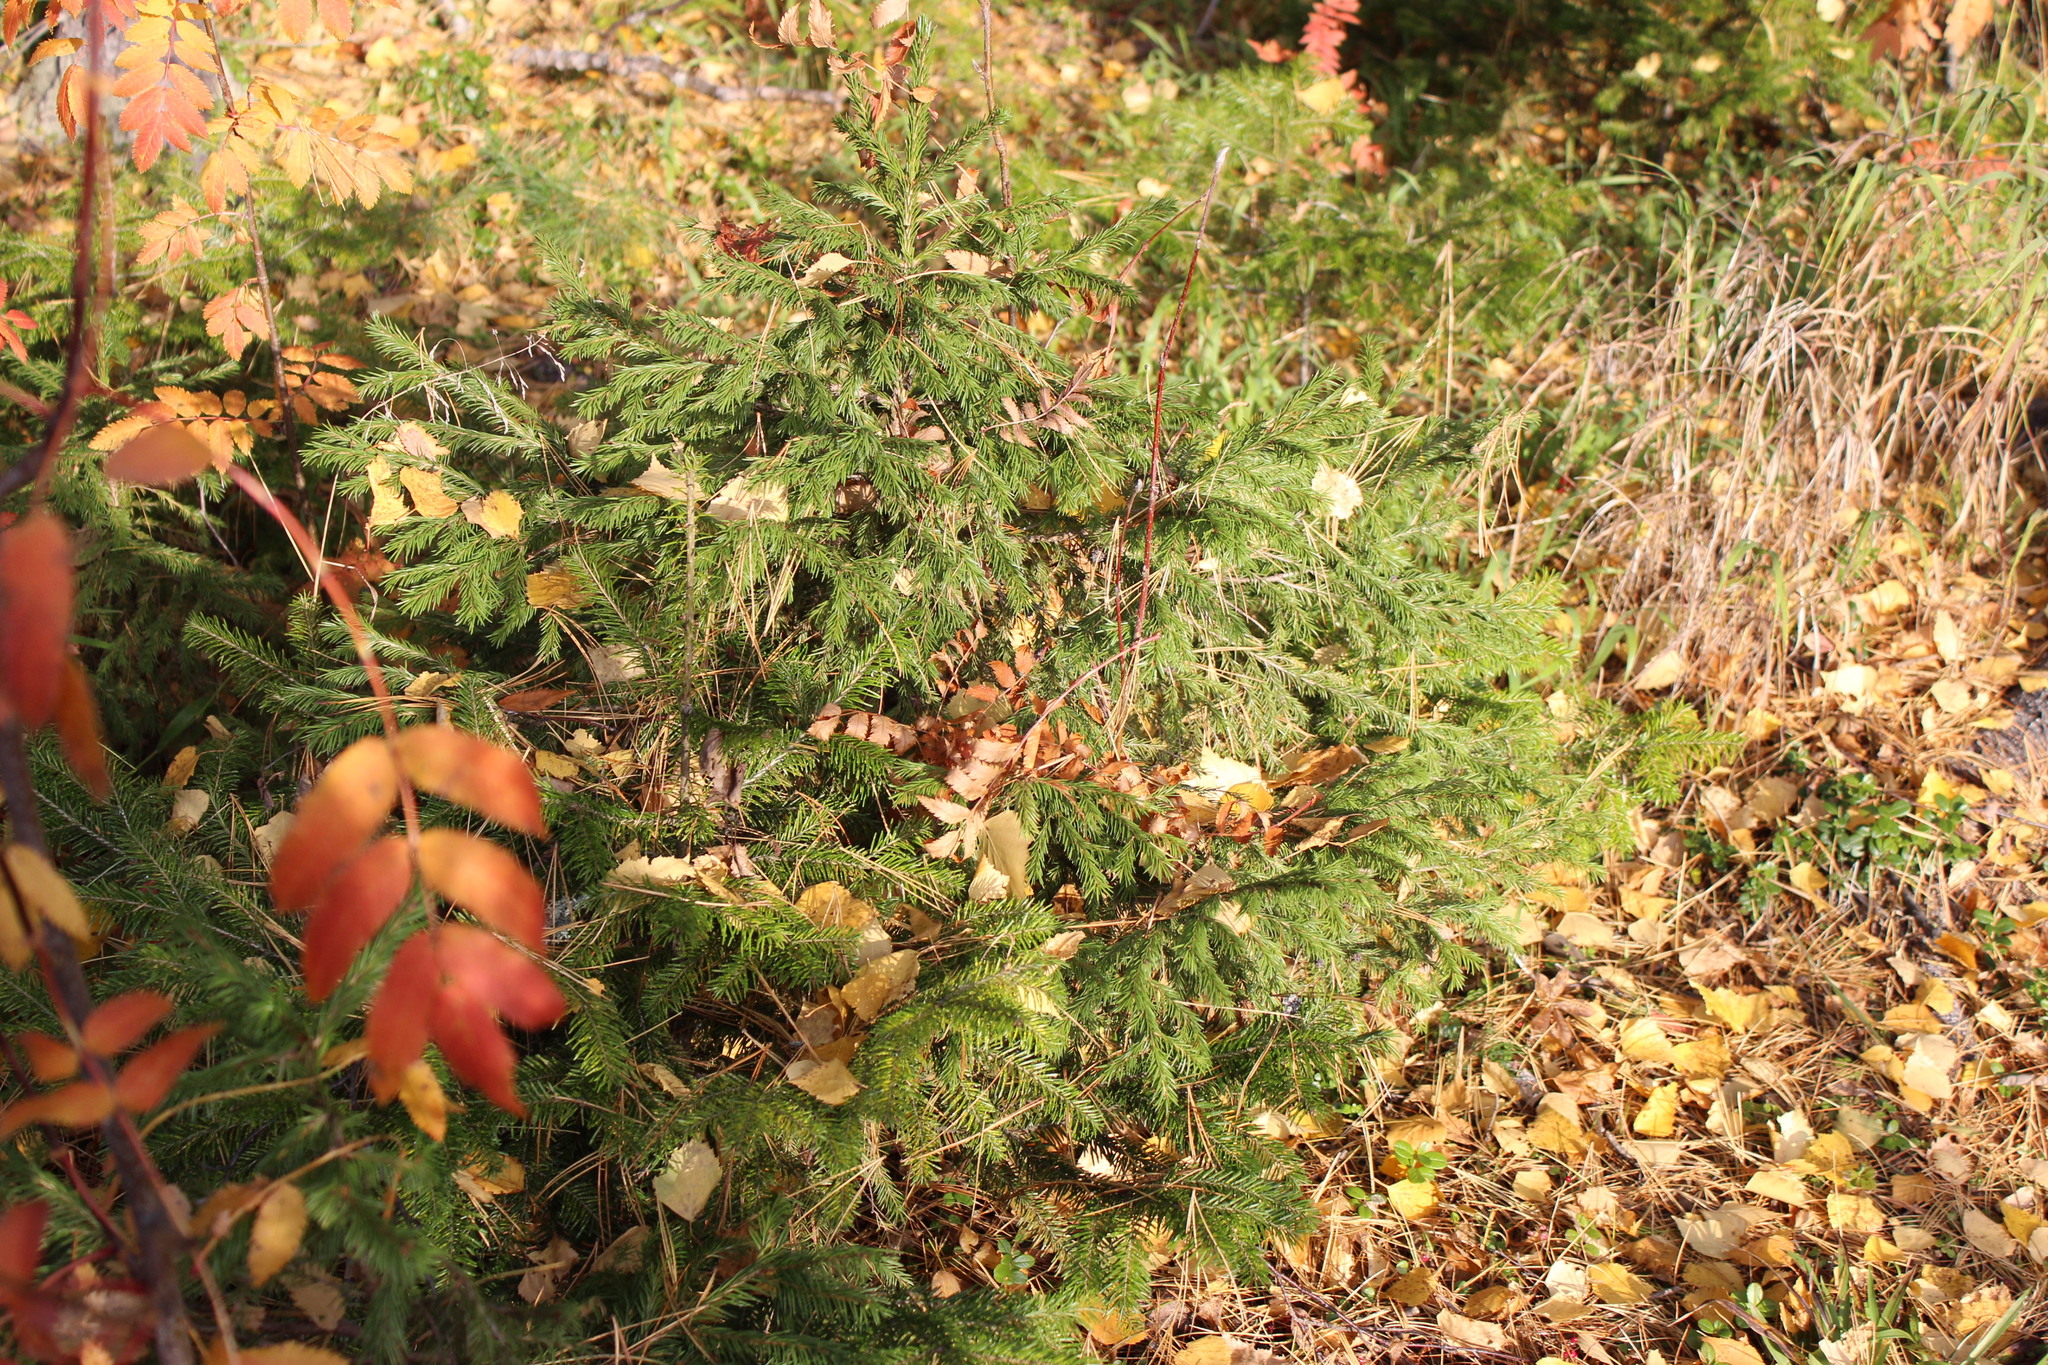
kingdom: Plantae
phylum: Tracheophyta
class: Pinopsida
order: Pinales
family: Pinaceae
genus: Picea
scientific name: Picea obovata
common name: Siberian spruce
